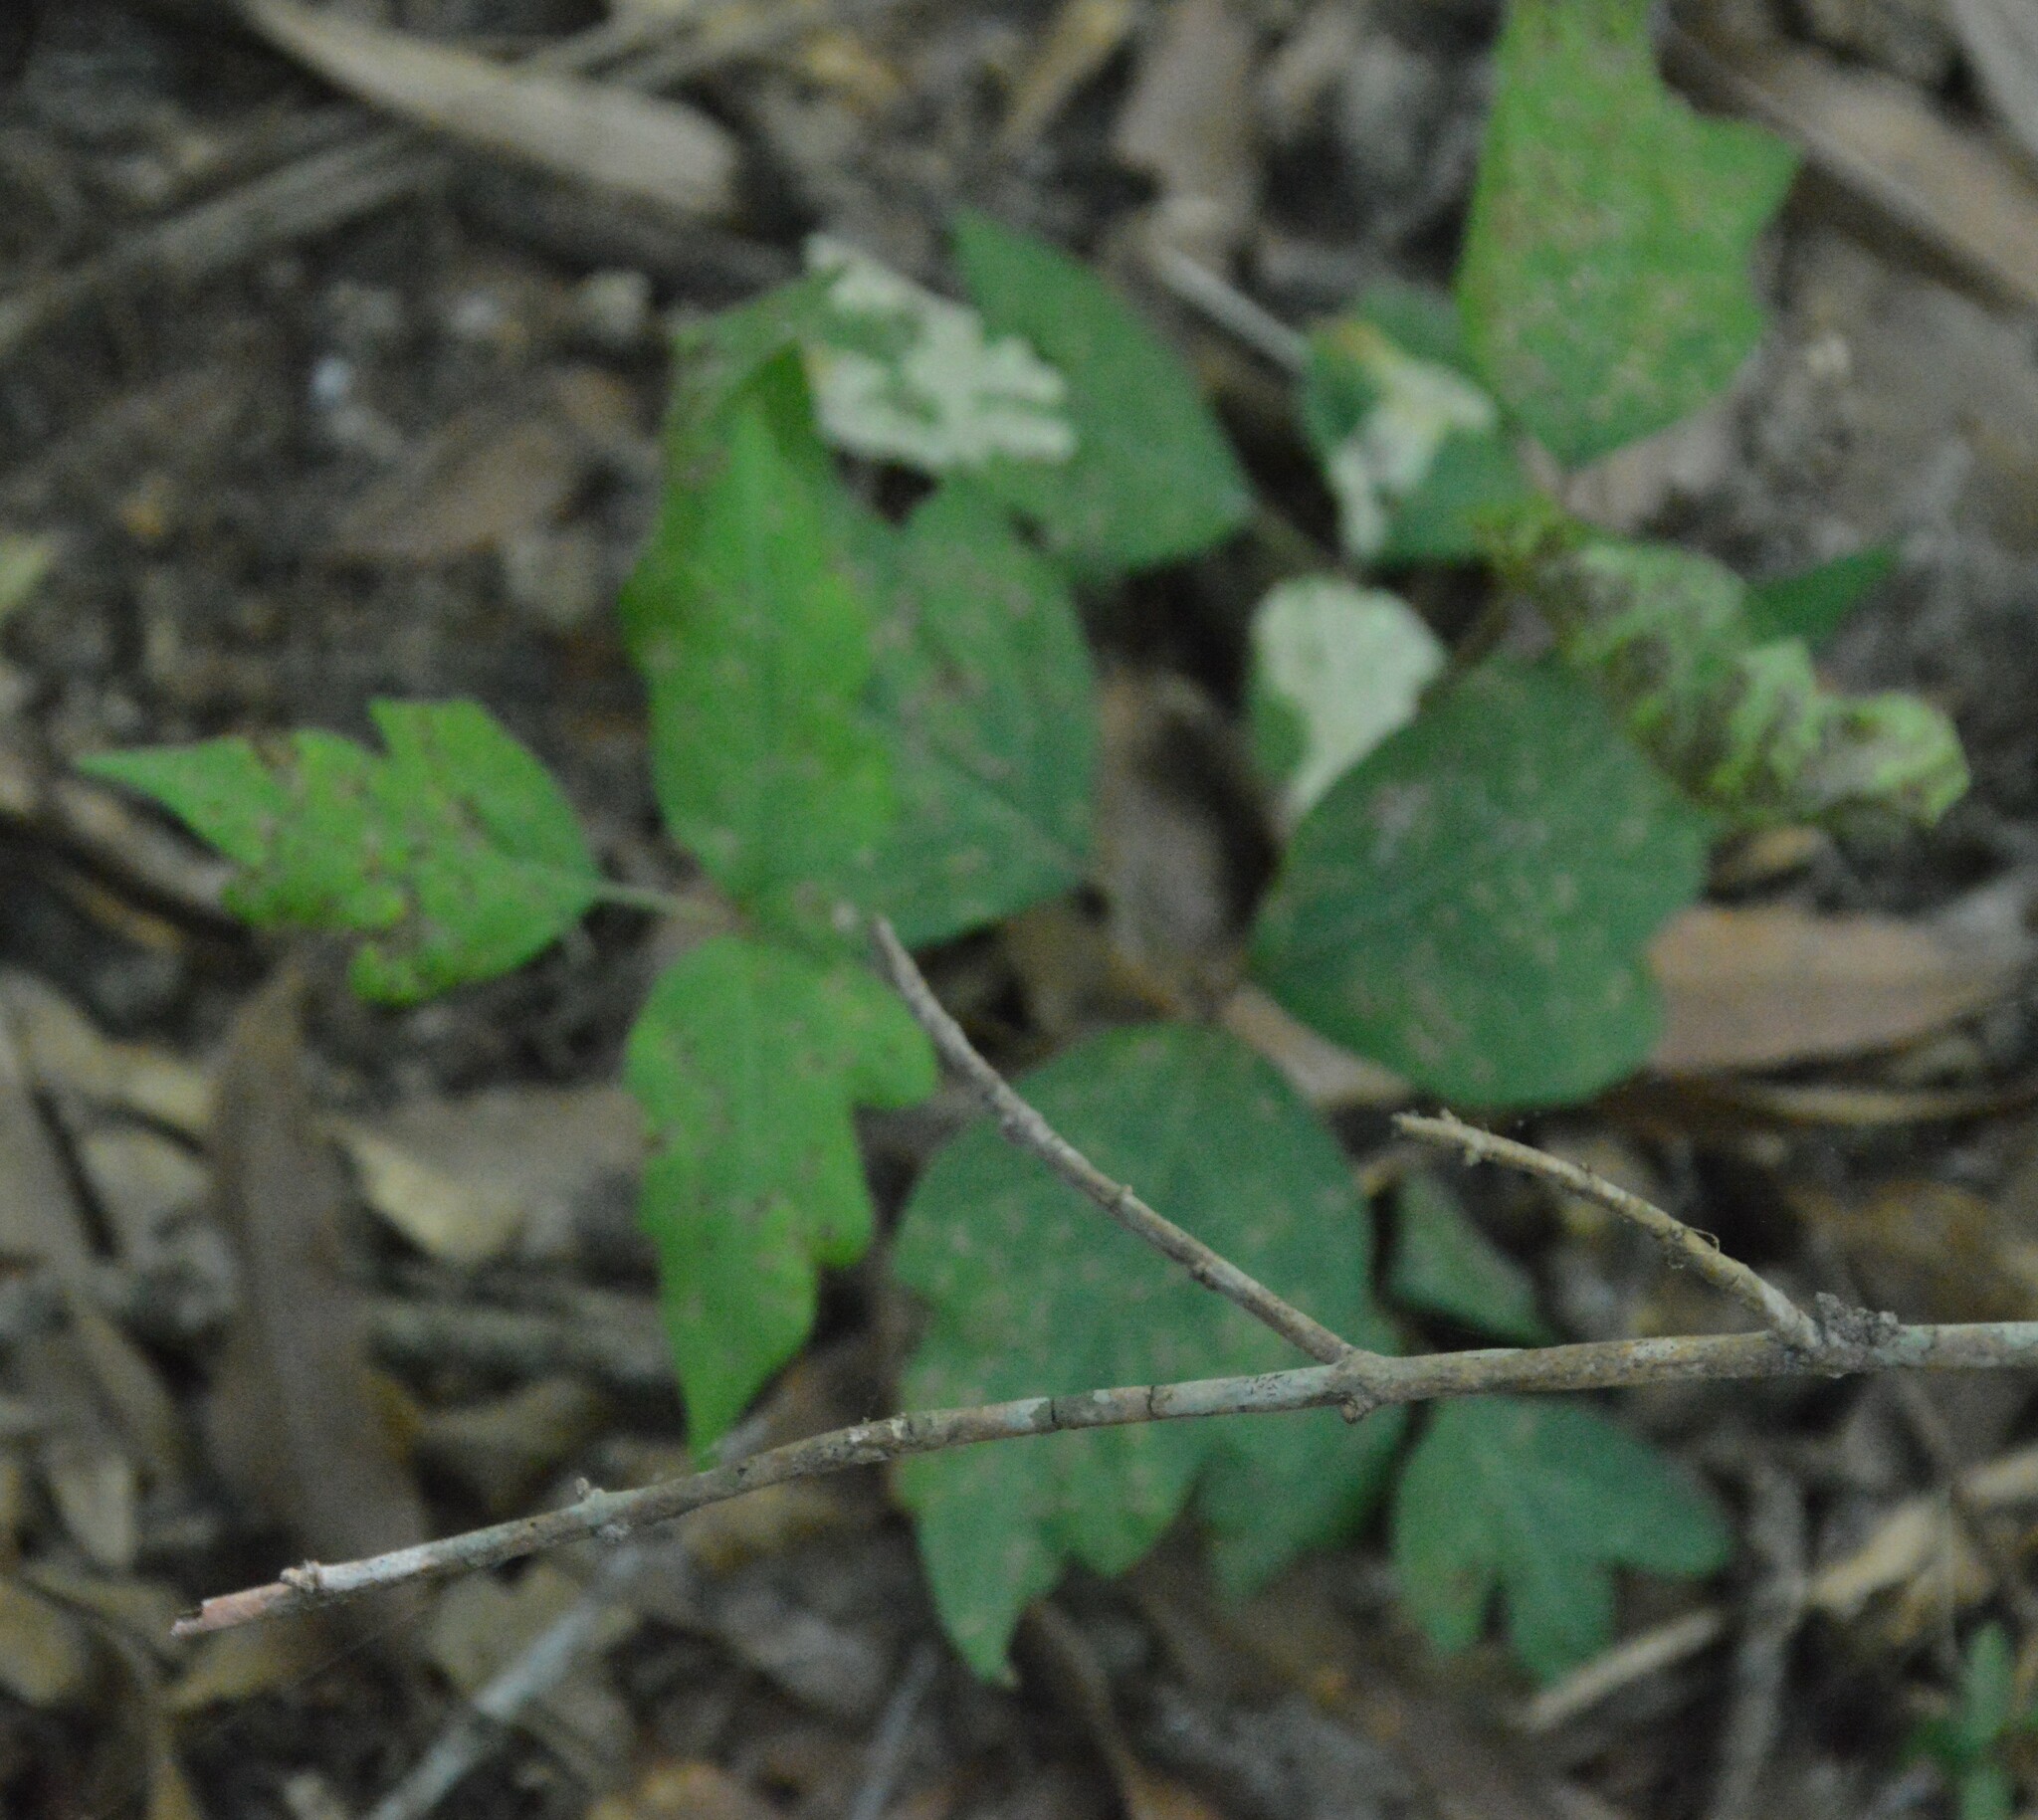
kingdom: Plantae
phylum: Tracheophyta
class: Magnoliopsida
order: Sapindales
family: Anacardiaceae
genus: Toxicodendron
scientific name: Toxicodendron radicans
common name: Poison ivy
